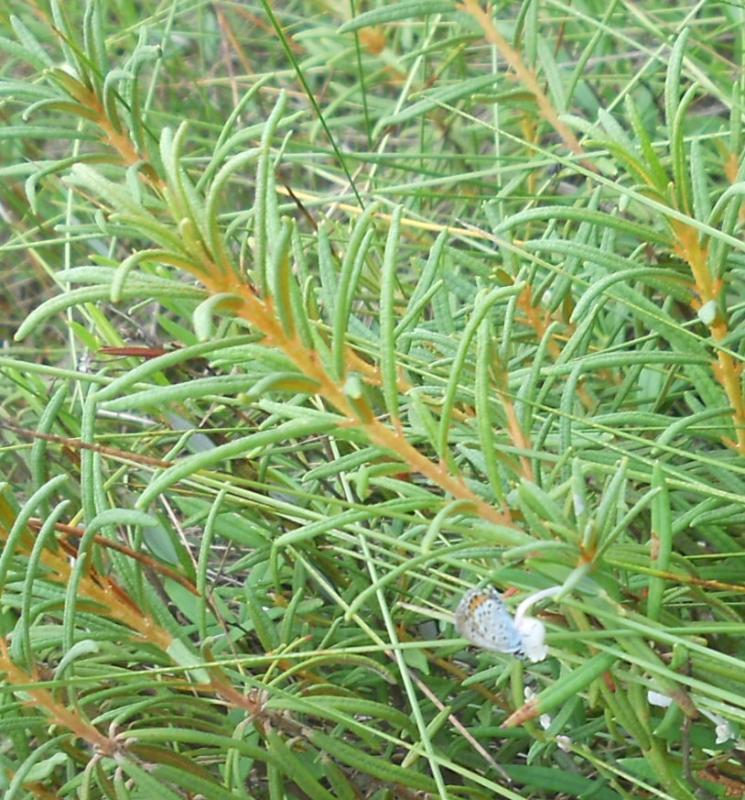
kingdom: Plantae
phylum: Tracheophyta
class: Magnoliopsida
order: Ericales
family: Ericaceae
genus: Rhododendron
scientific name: Rhododendron tomentosum
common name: Marsh labrador tea
